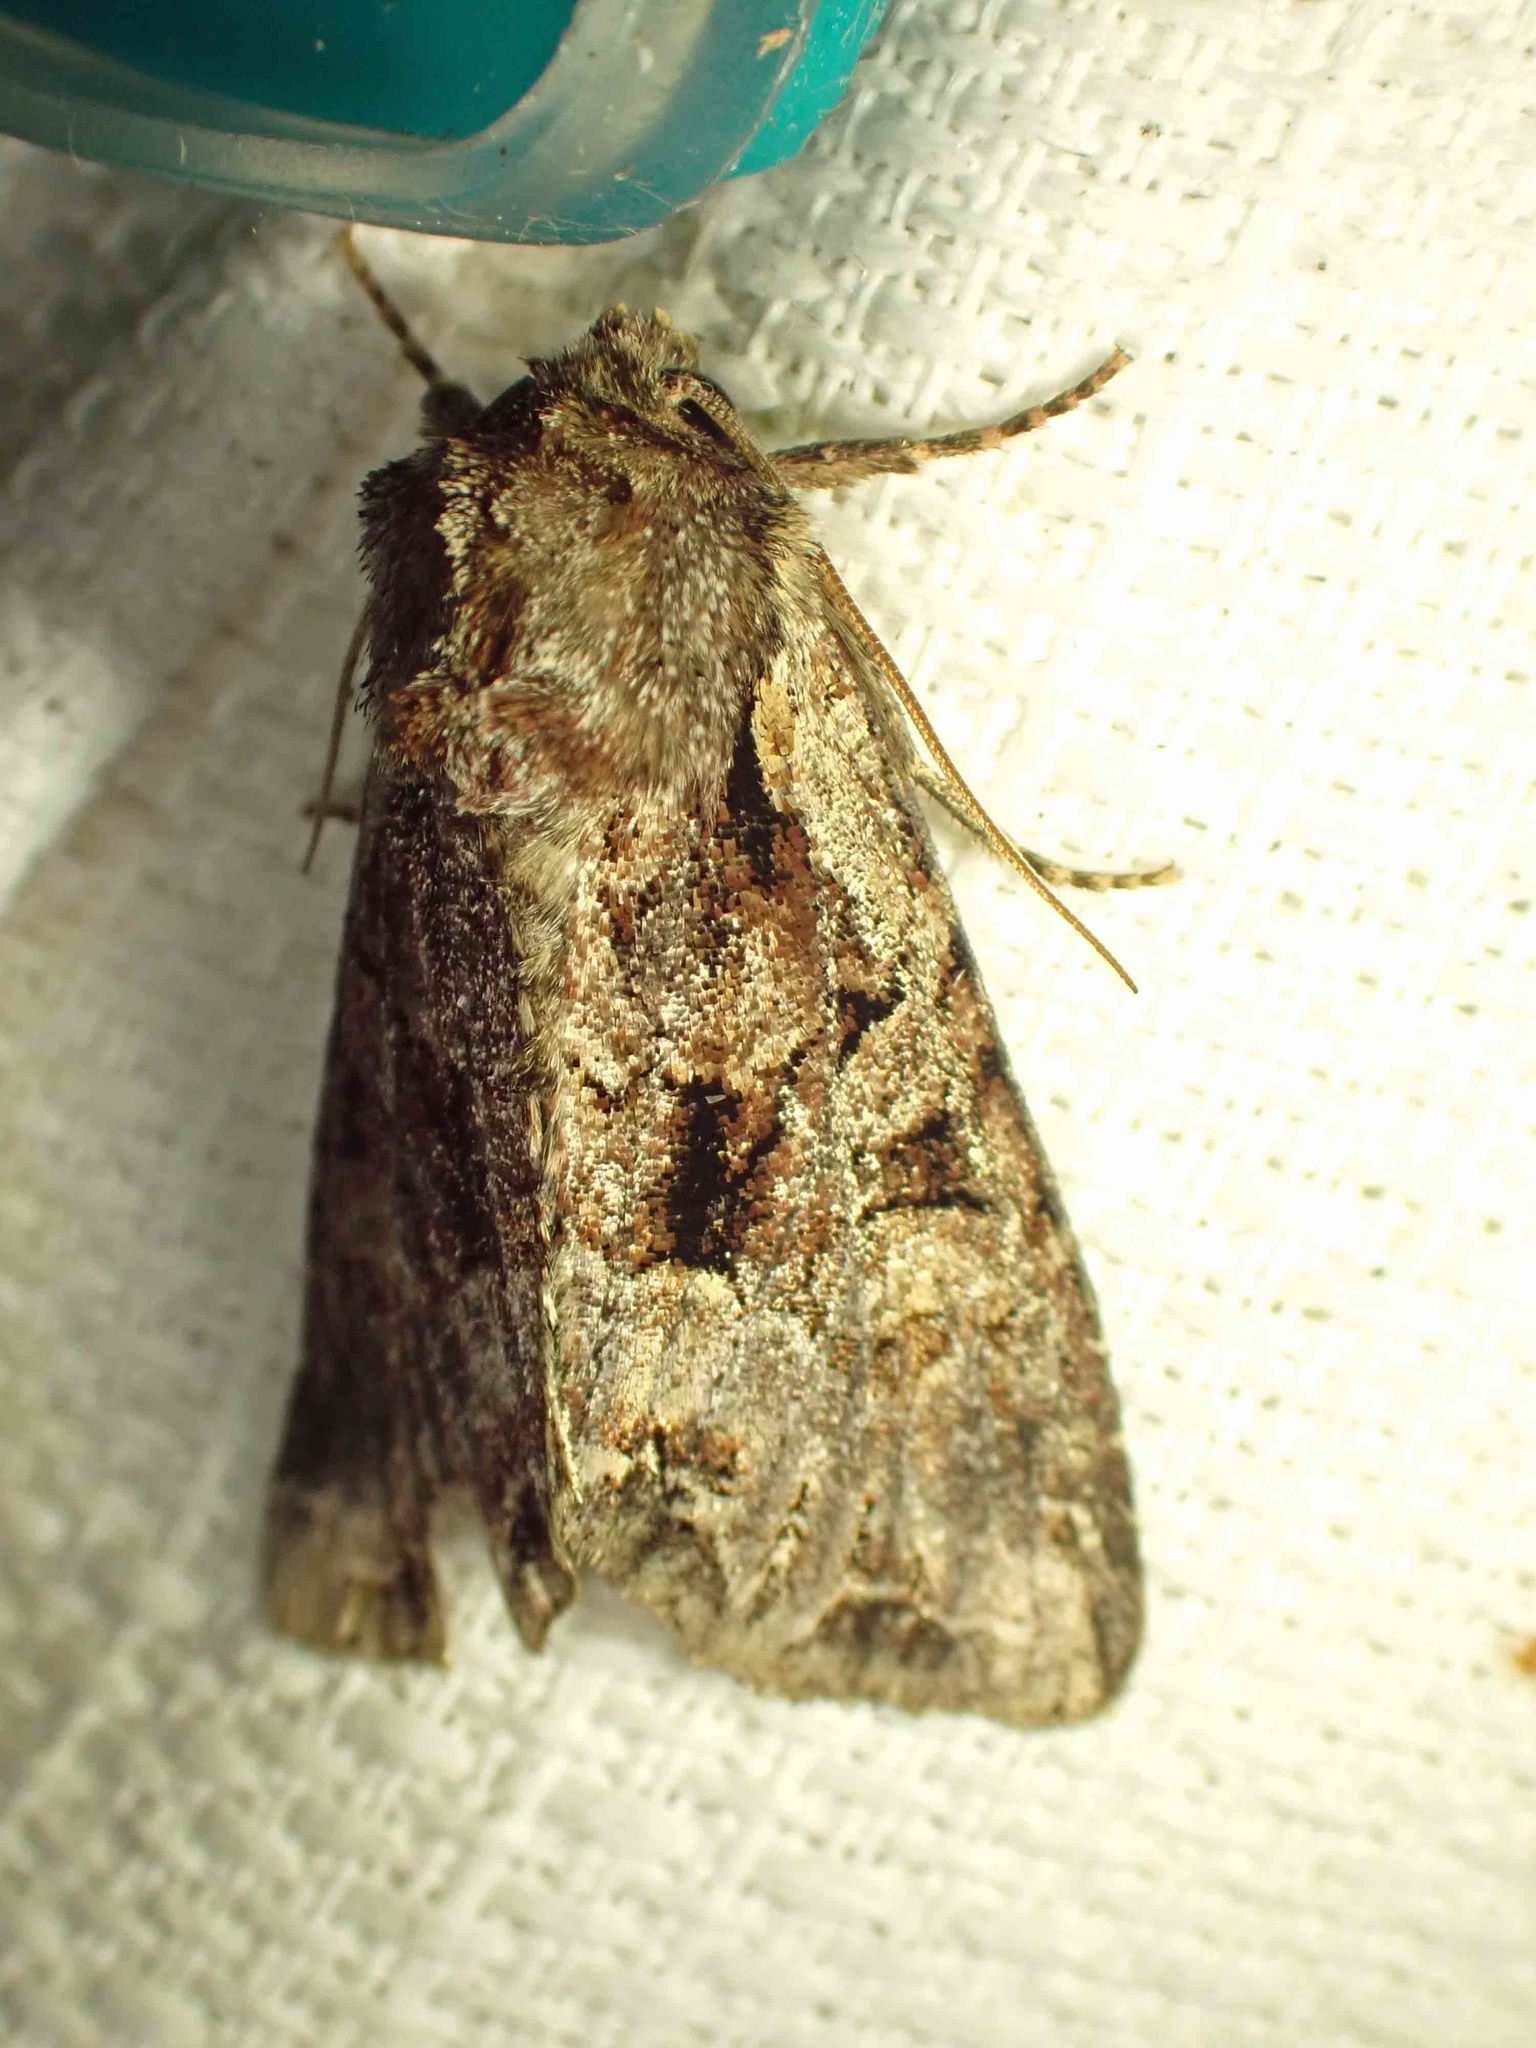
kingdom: Animalia
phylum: Arthropoda
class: Insecta
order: Lepidoptera
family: Noctuidae
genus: Lacanobia
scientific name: Lacanobia grandis
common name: Grand arches moth
